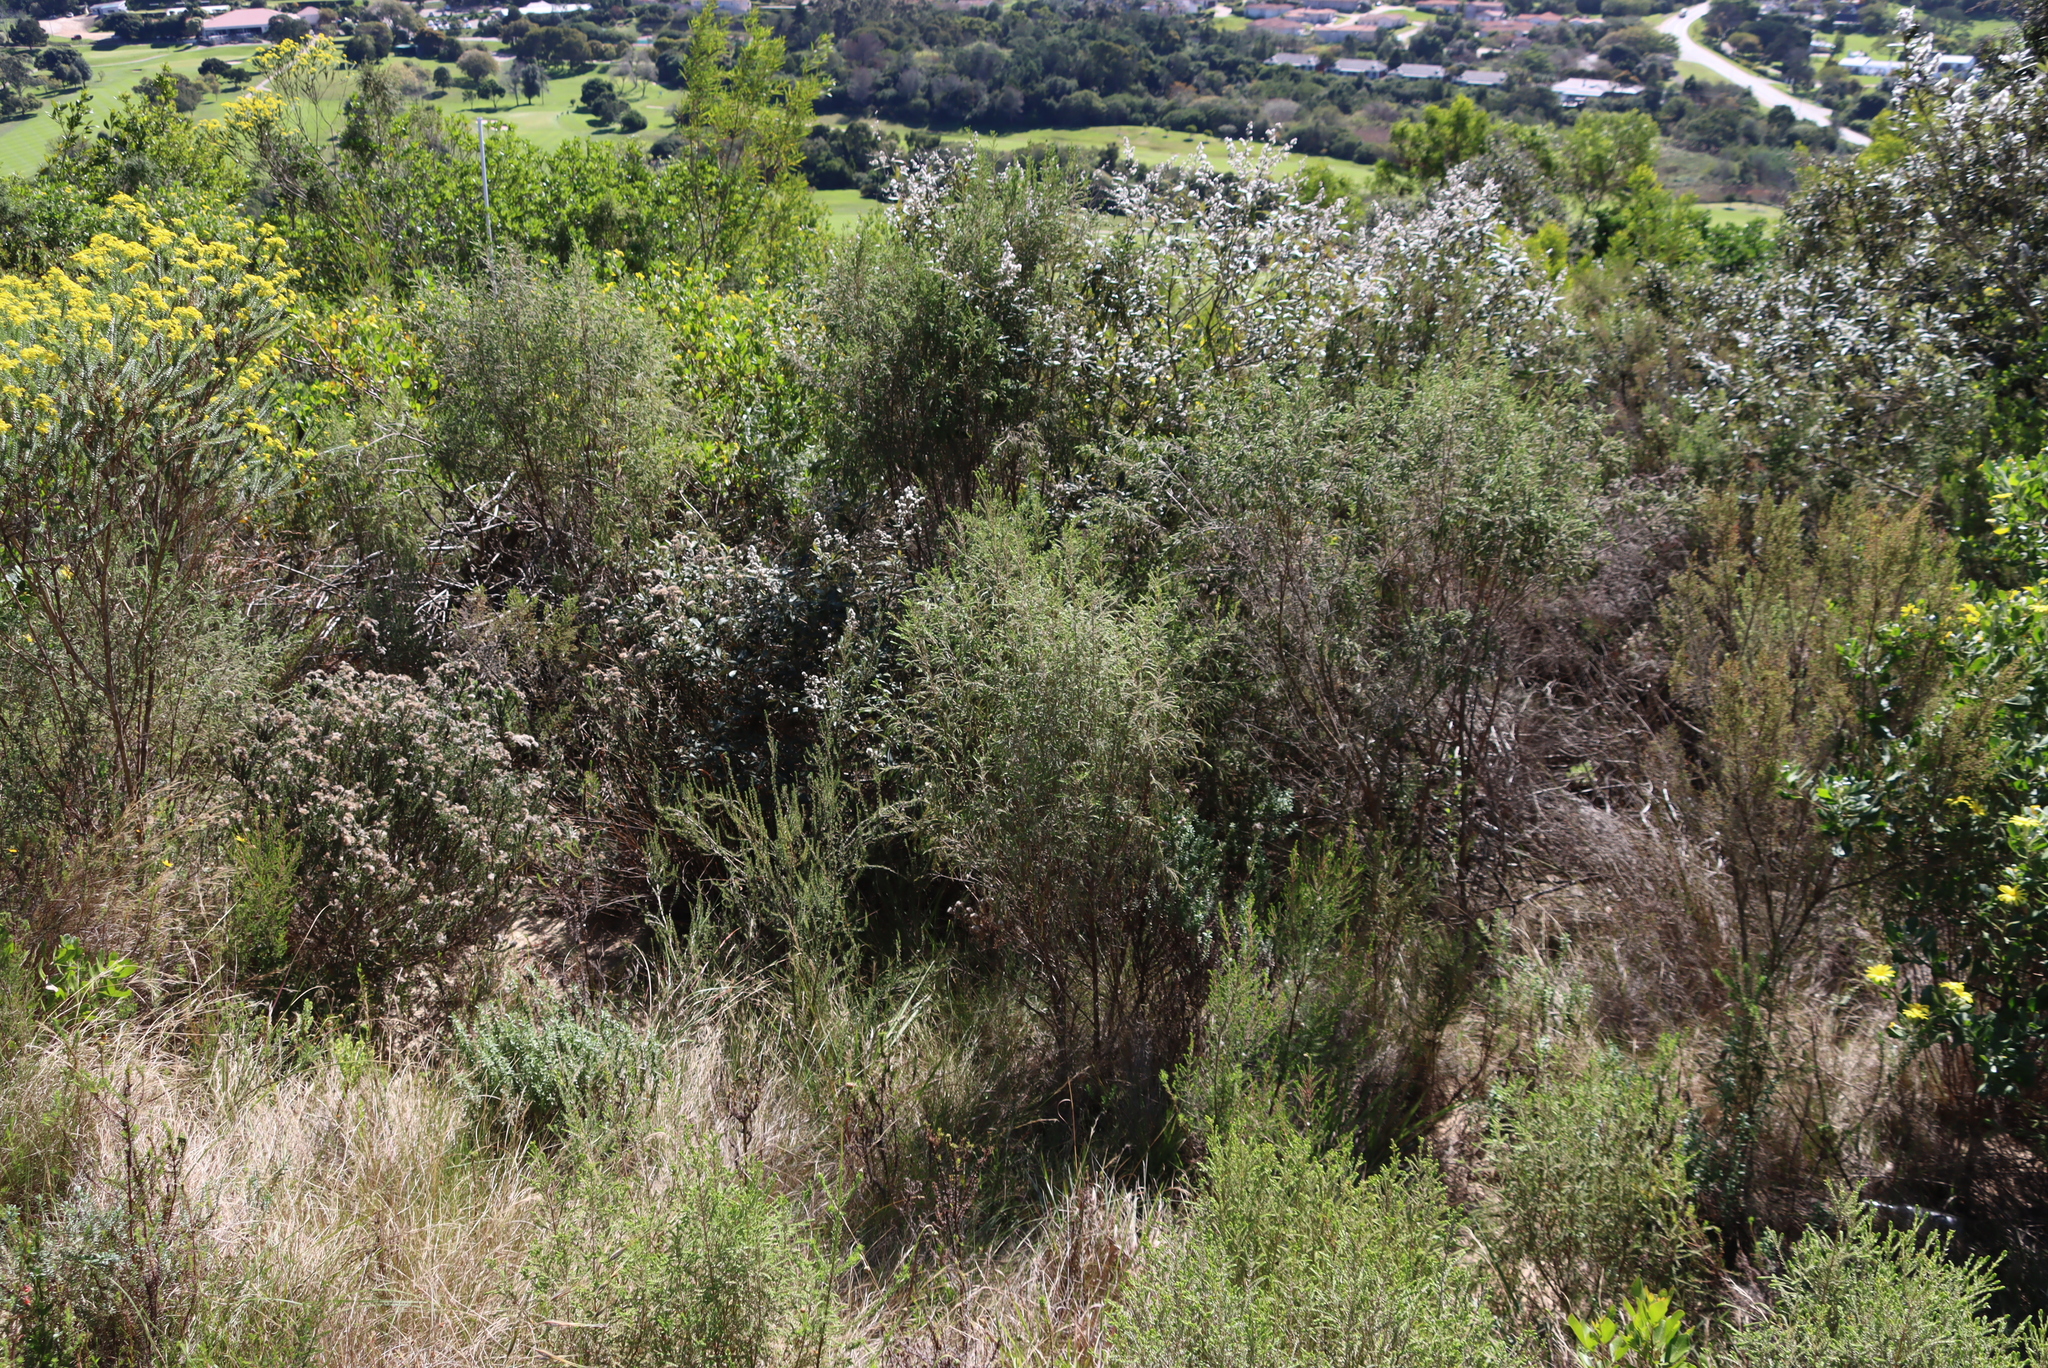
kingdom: Plantae
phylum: Tracheophyta
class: Magnoliopsida
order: Malvales
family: Thymelaeaceae
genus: Passerina
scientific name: Passerina falcifolia
